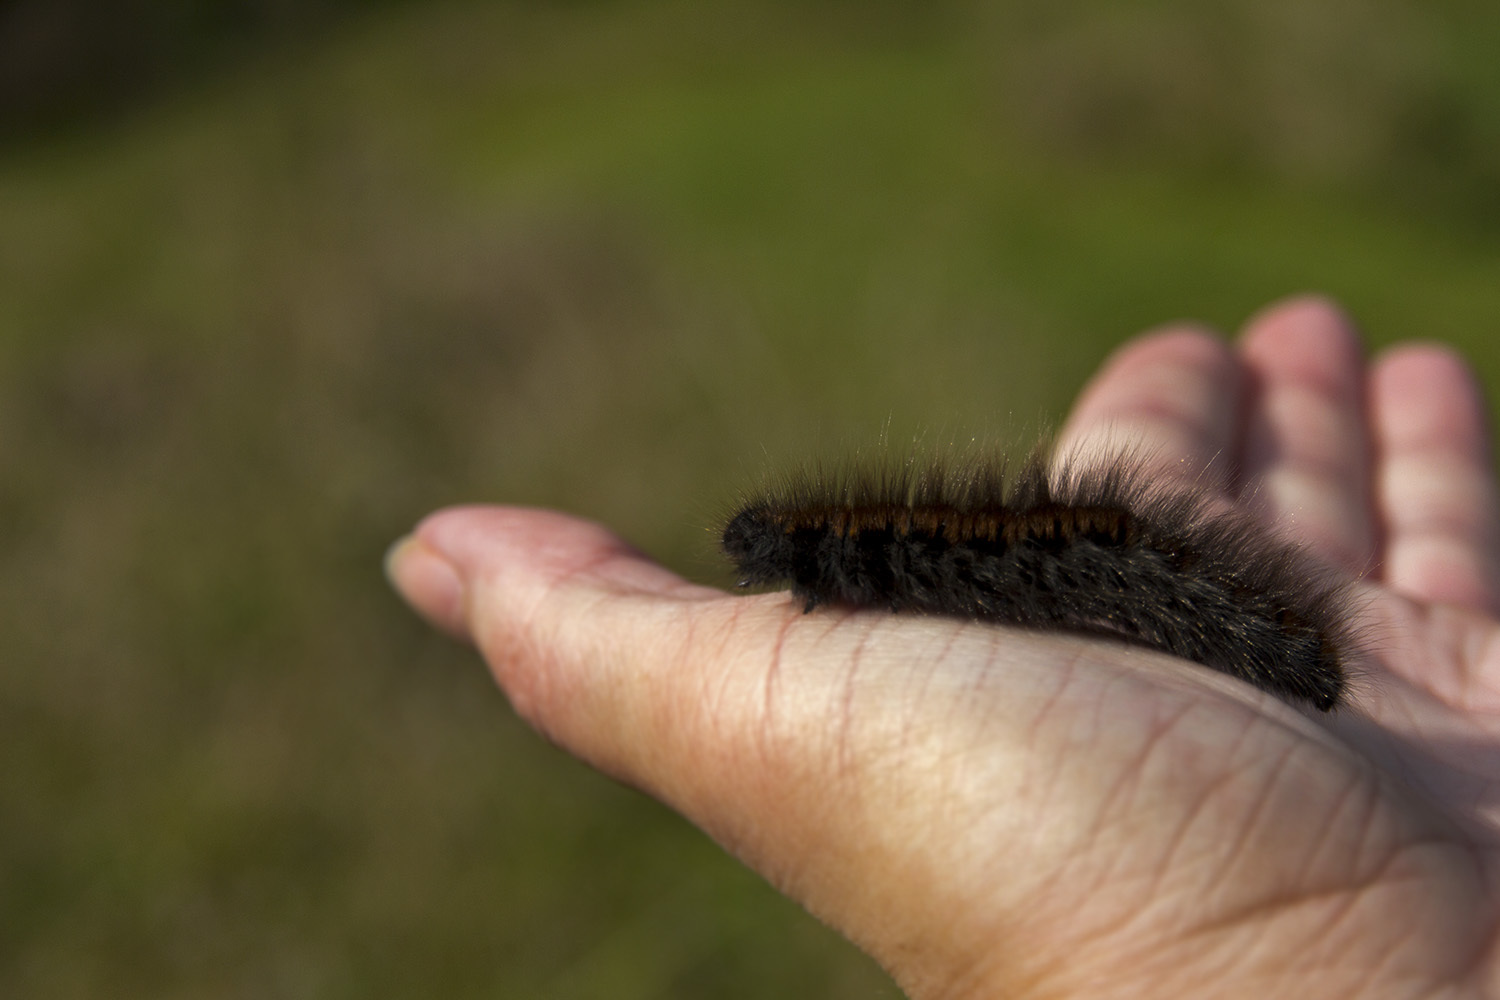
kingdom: Animalia
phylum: Arthropoda
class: Insecta
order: Lepidoptera
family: Lasiocampidae
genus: Macrothylacia
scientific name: Macrothylacia rubi
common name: Fox moth
